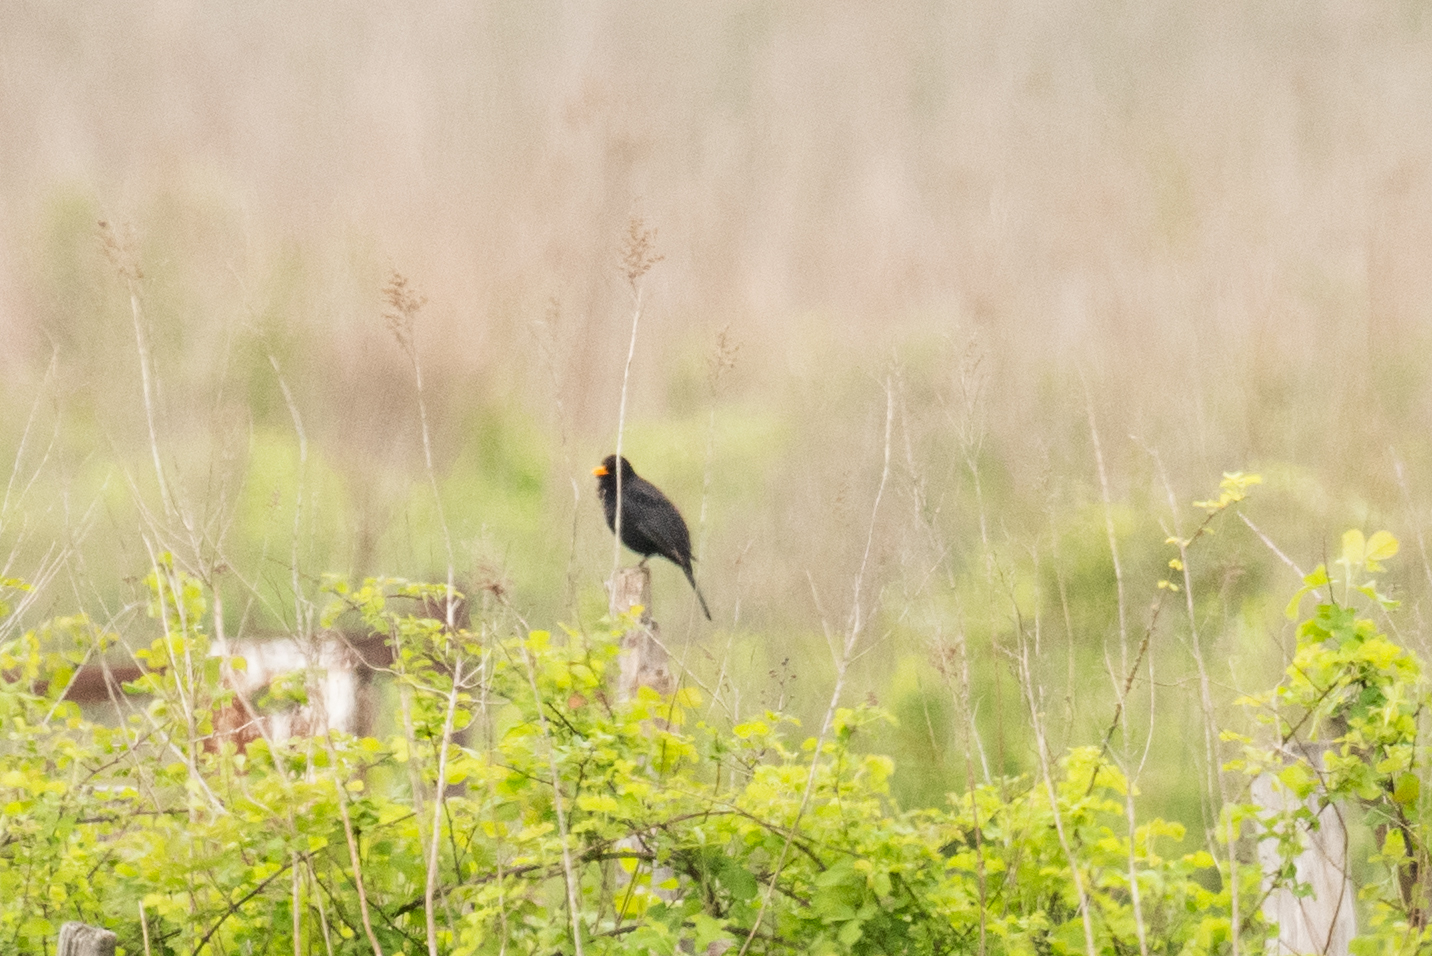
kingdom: Animalia
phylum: Chordata
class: Aves
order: Passeriformes
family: Turdidae
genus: Turdus
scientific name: Turdus merula
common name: Common blackbird
